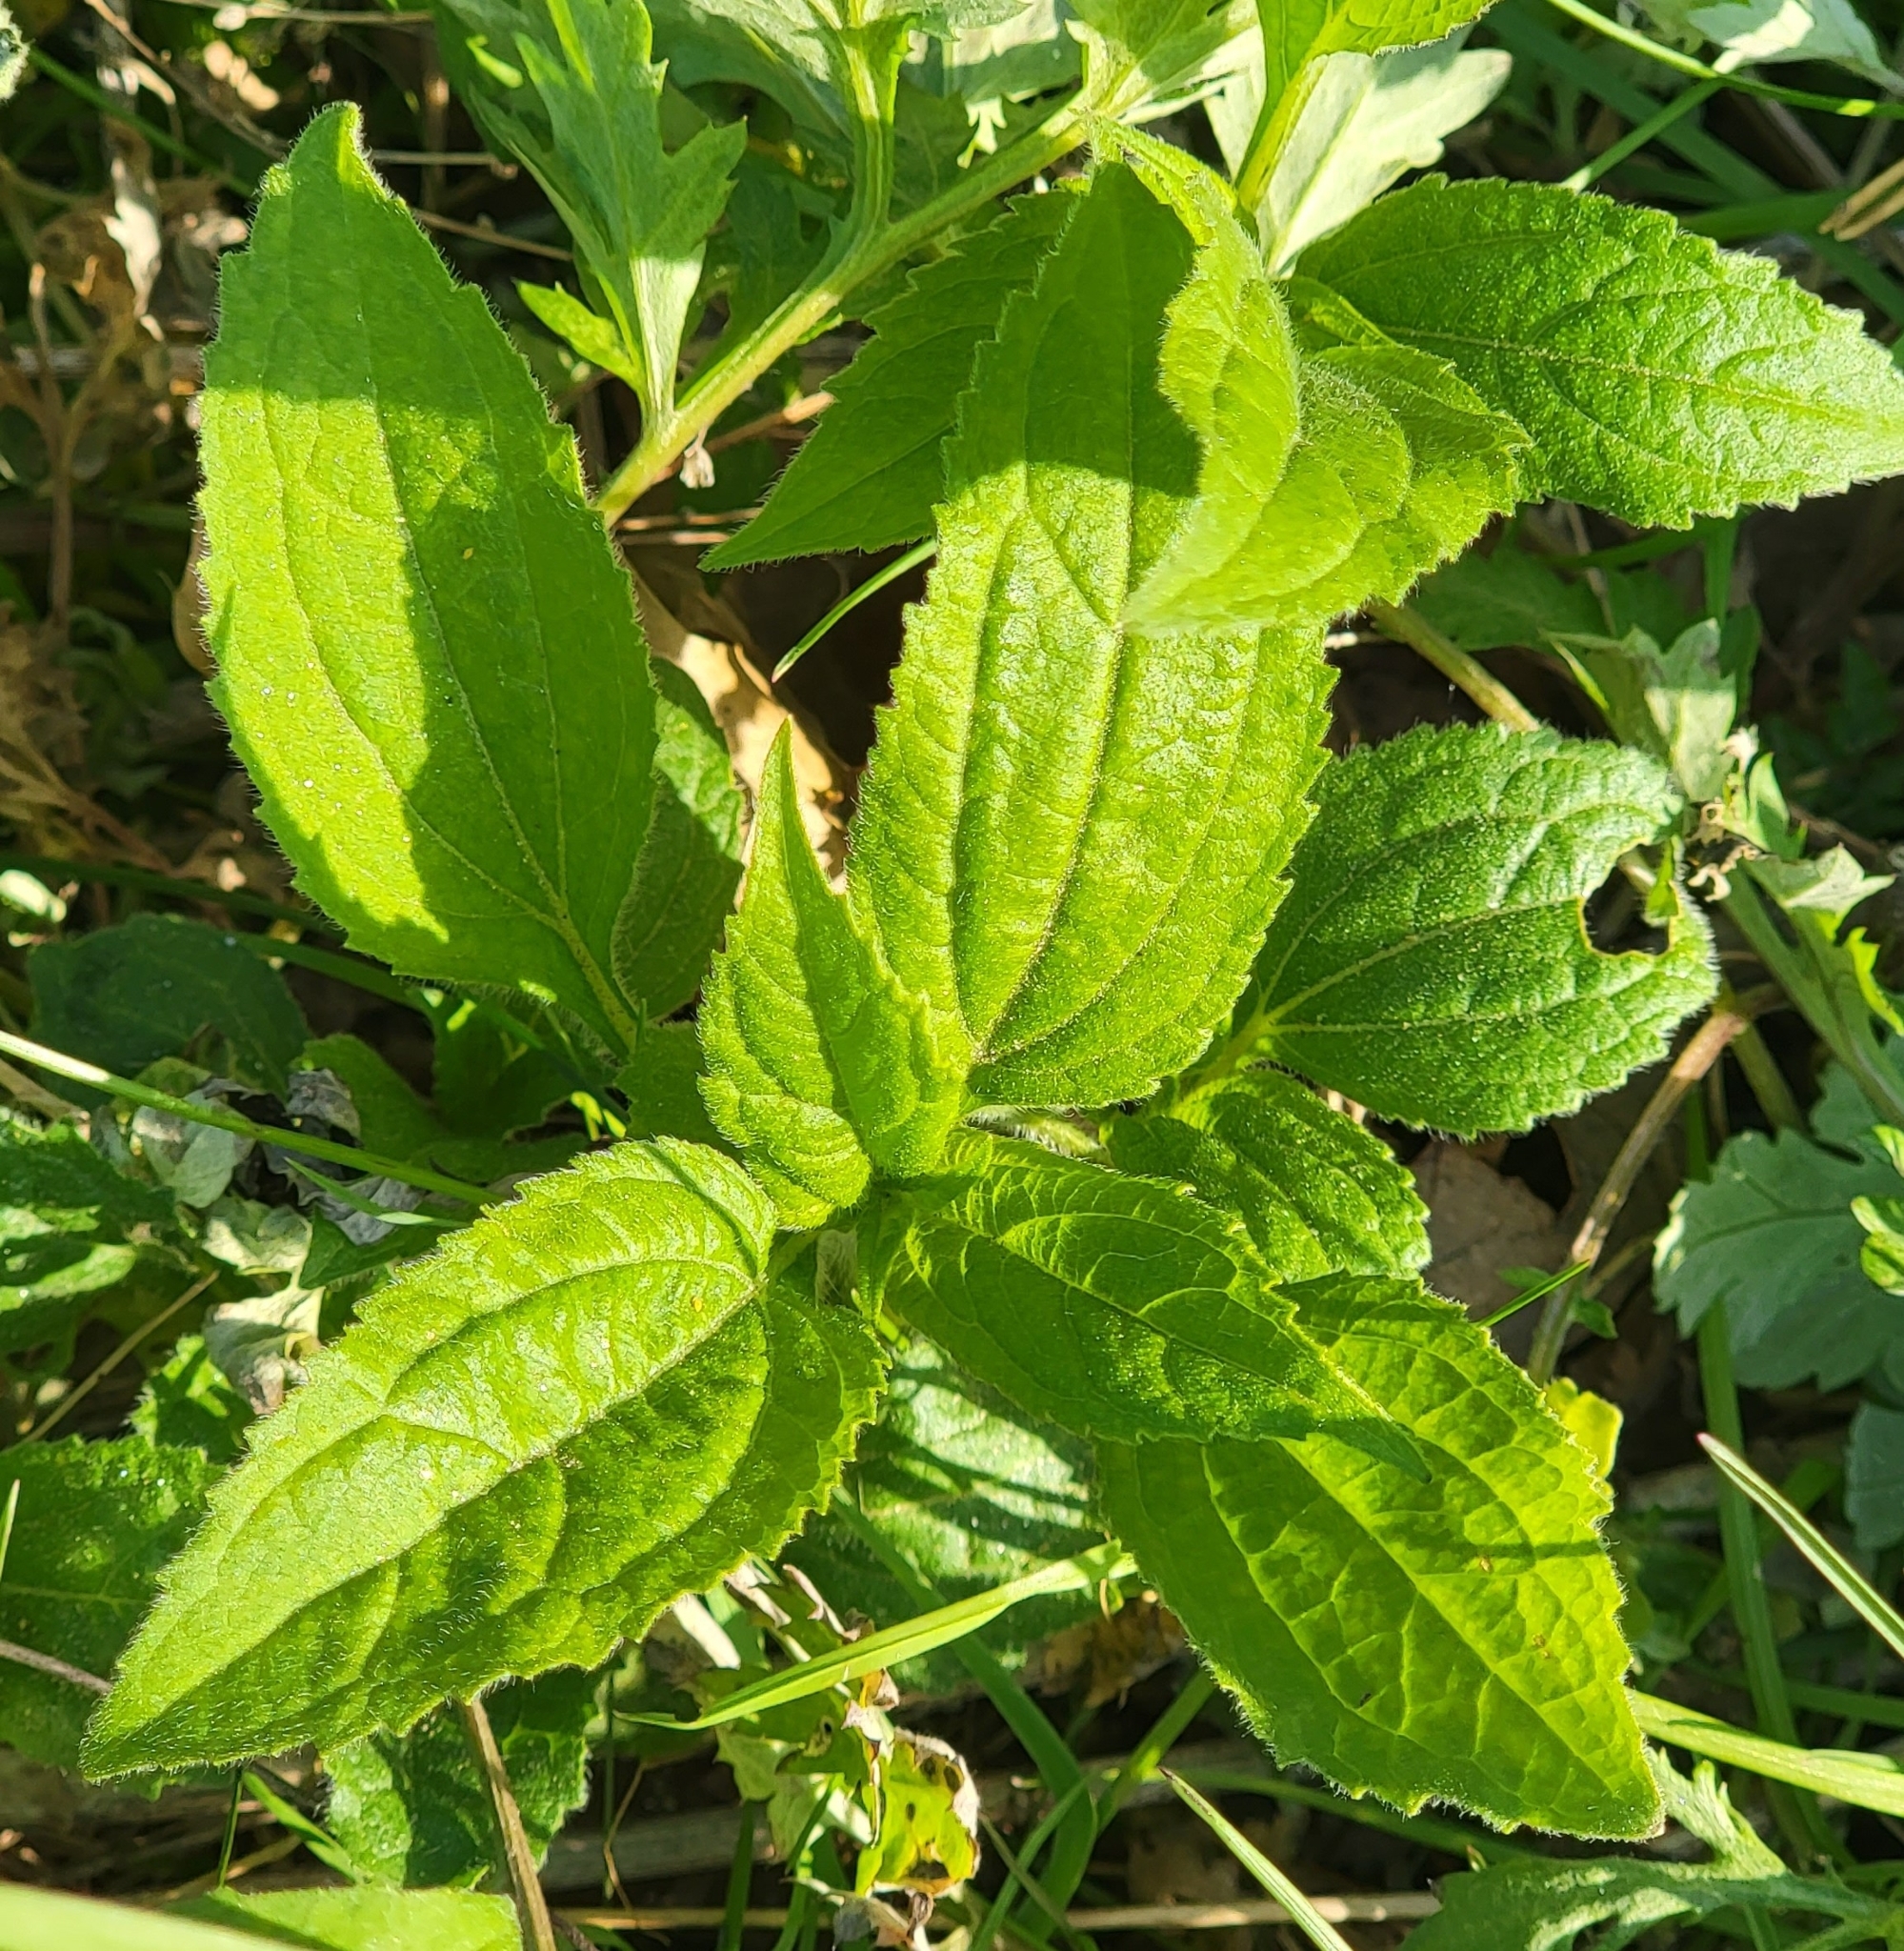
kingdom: Plantae
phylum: Tracheophyta
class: Magnoliopsida
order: Asterales
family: Asteraceae
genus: Ageratina
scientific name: Ageratina altissima
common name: White snakeroot
